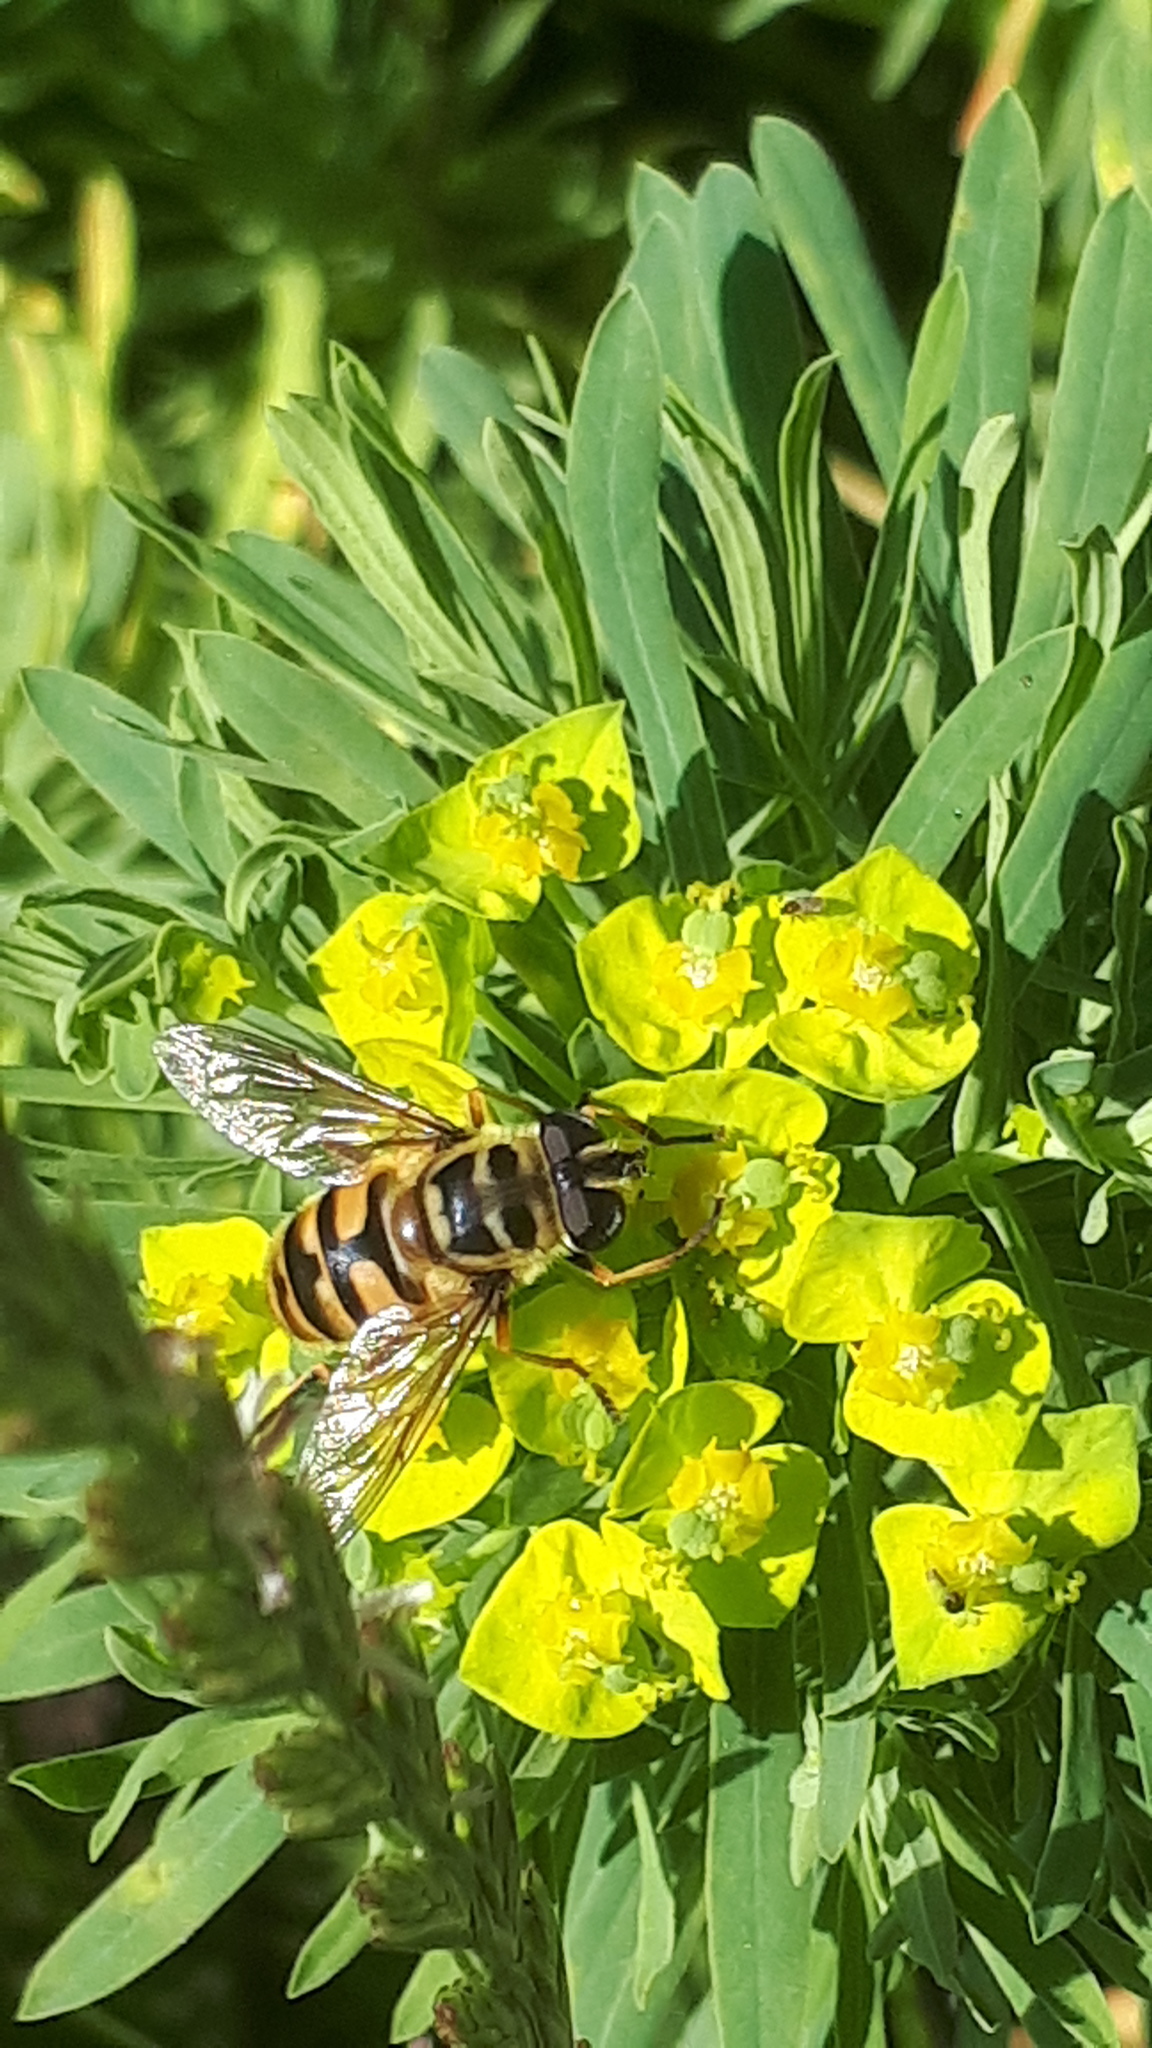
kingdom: Animalia
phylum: Arthropoda
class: Insecta
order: Diptera
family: Syrphidae
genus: Myathropa
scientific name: Myathropa florea
